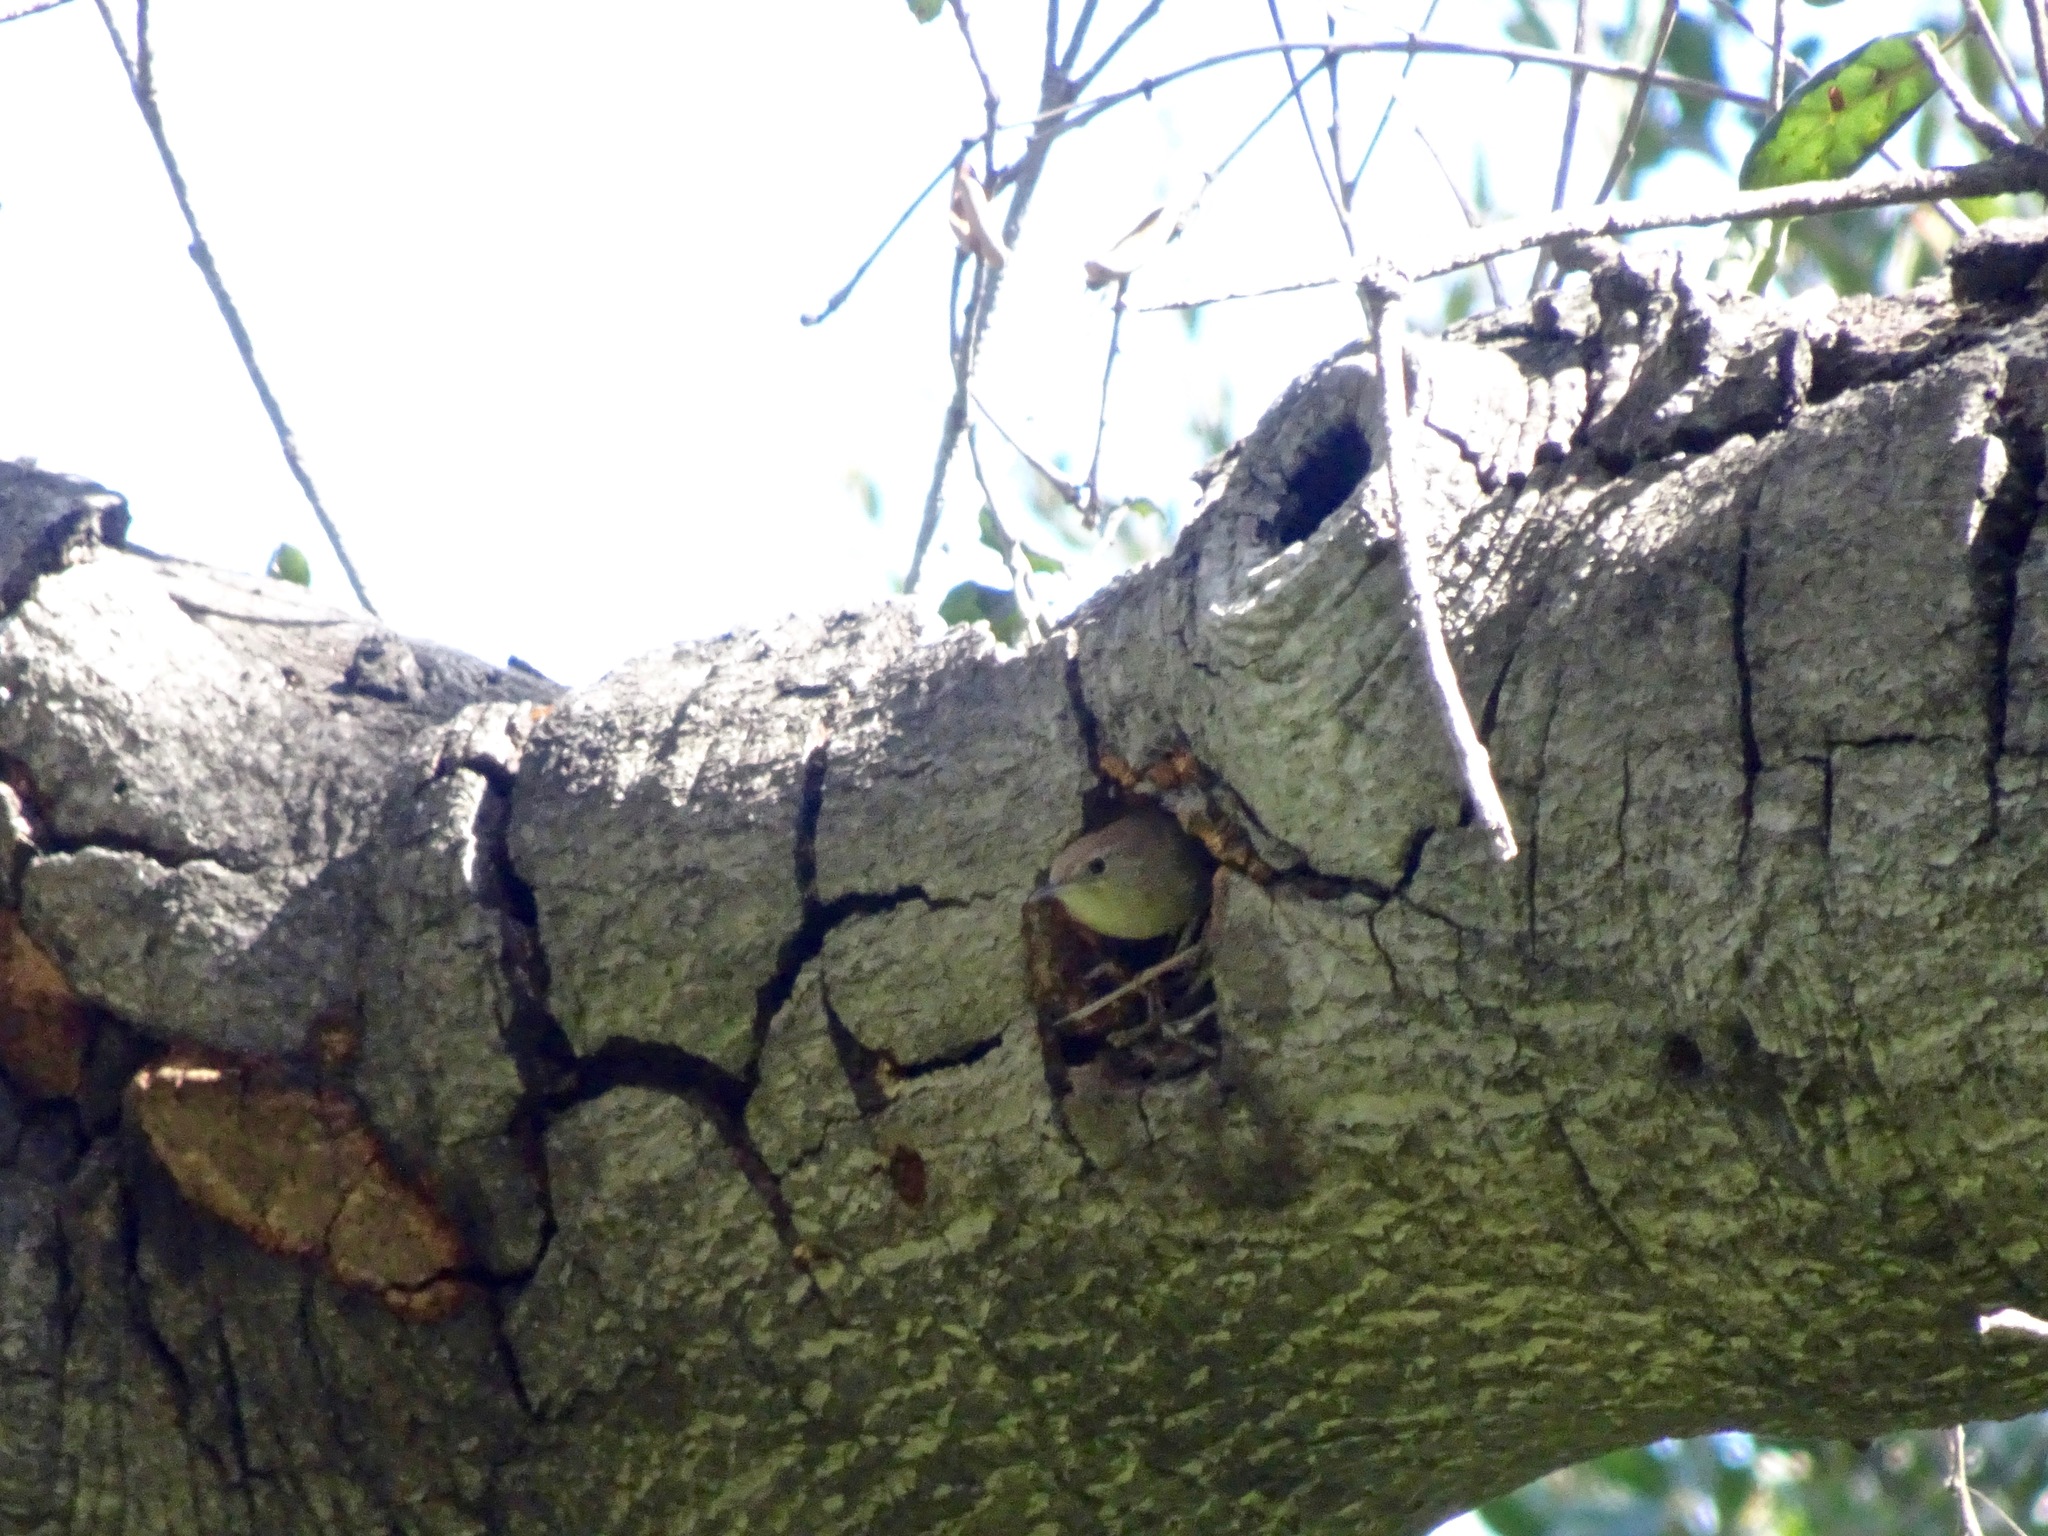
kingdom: Animalia
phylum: Chordata
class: Aves
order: Passeriformes
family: Troglodytidae
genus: Troglodytes
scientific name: Troglodytes aedon
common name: House wren
